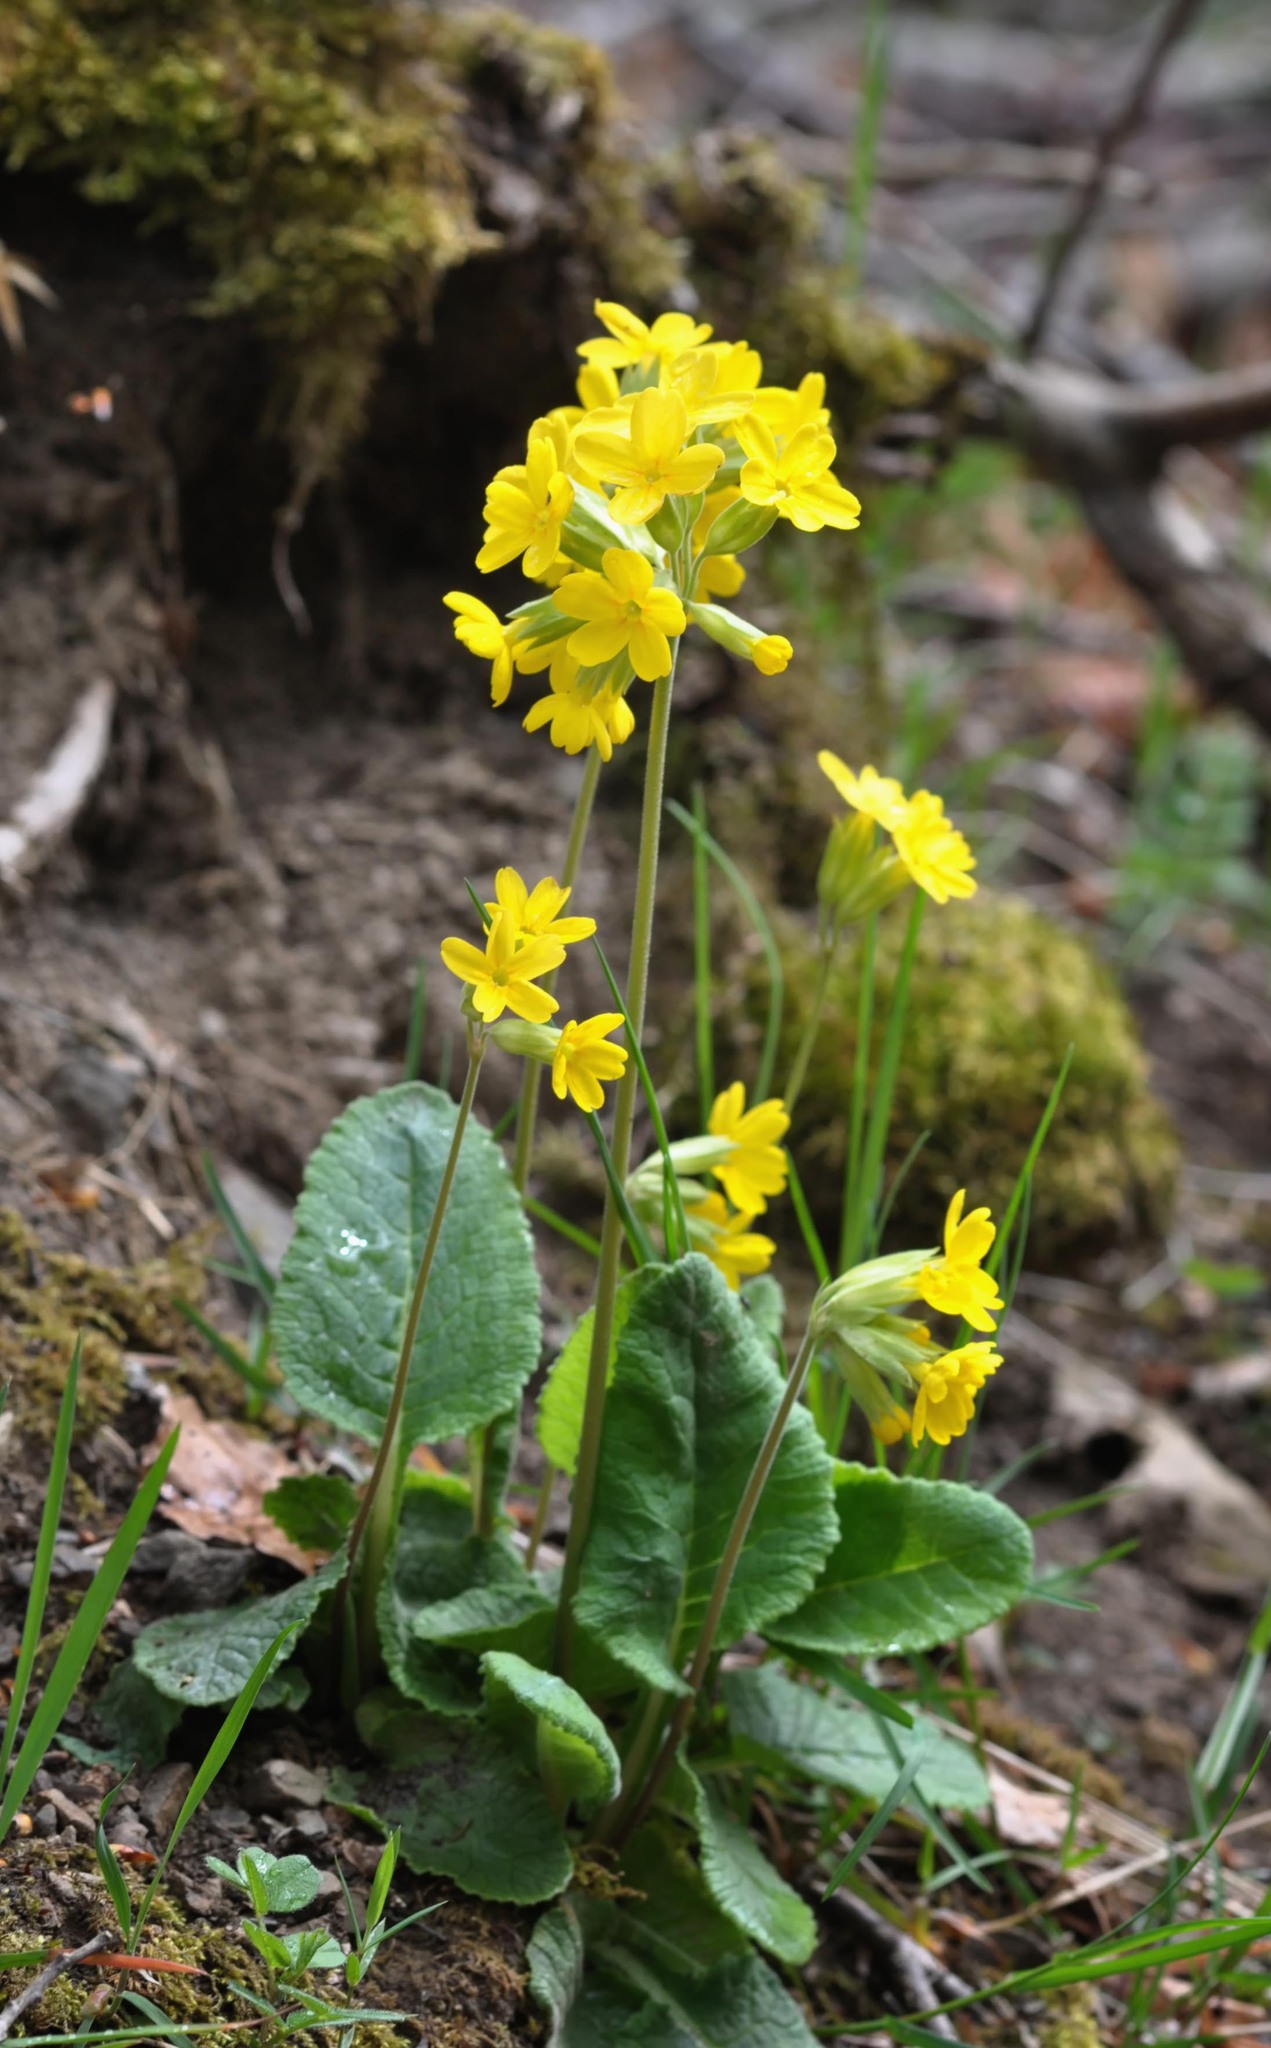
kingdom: Plantae
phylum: Tracheophyta
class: Magnoliopsida
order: Ericales
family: Primulaceae
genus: Primula
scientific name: Primula veris
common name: Cowslip
